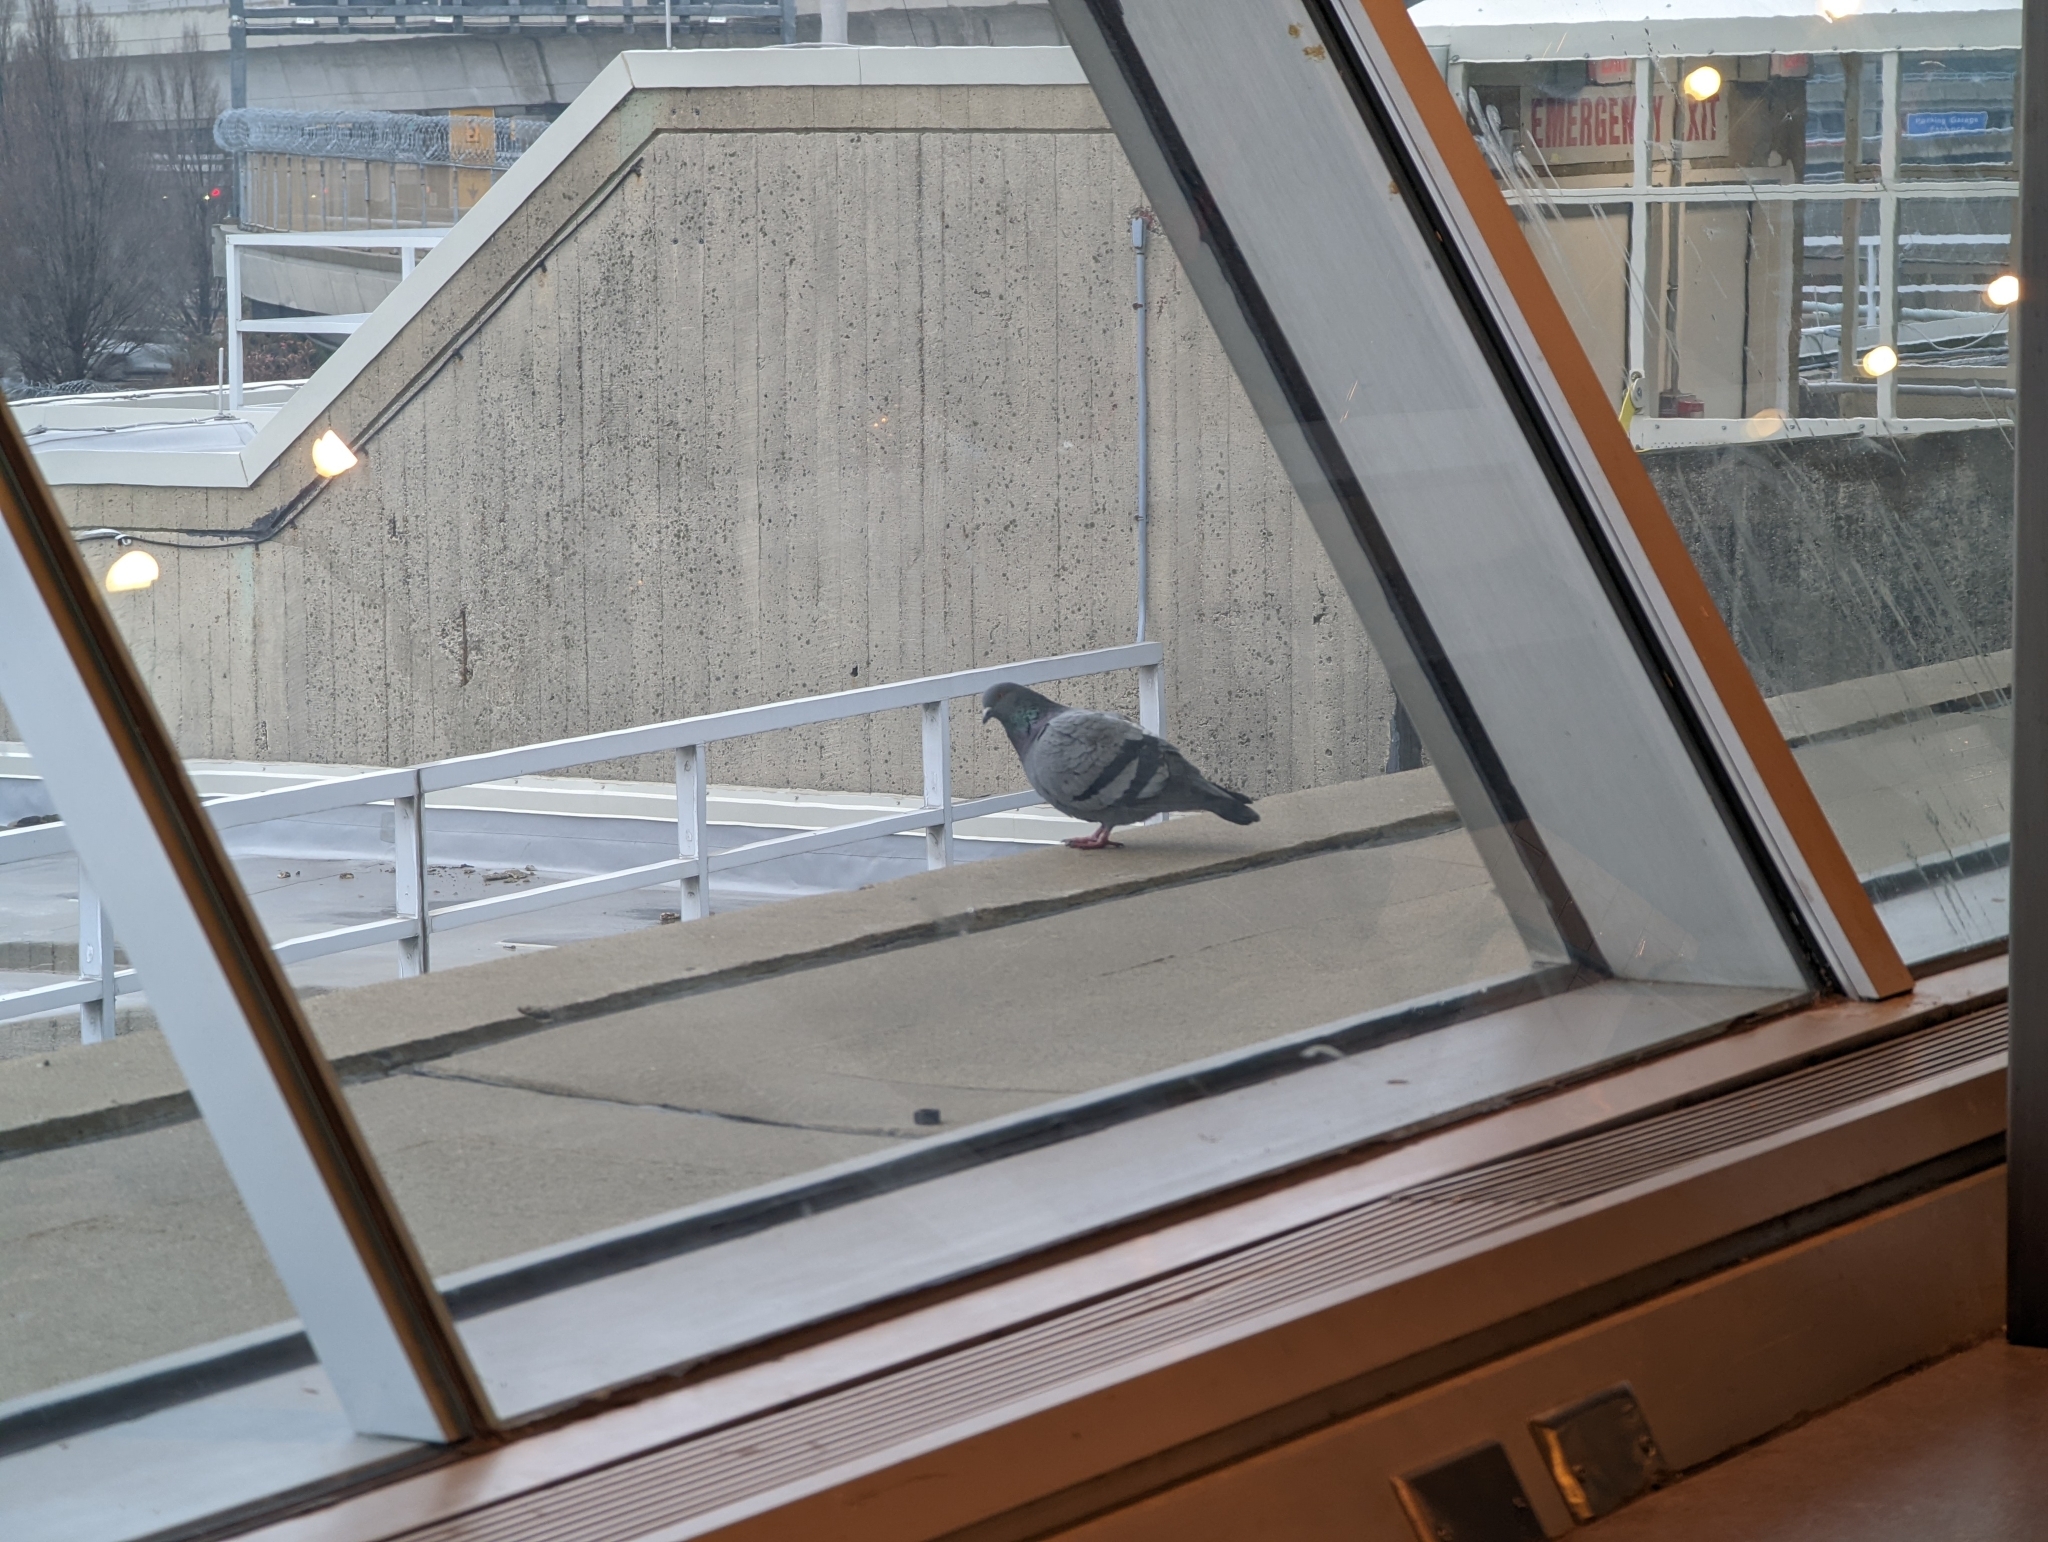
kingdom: Animalia
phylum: Chordata
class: Aves
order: Columbiformes
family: Columbidae
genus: Columba
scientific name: Columba livia
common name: Rock pigeon
